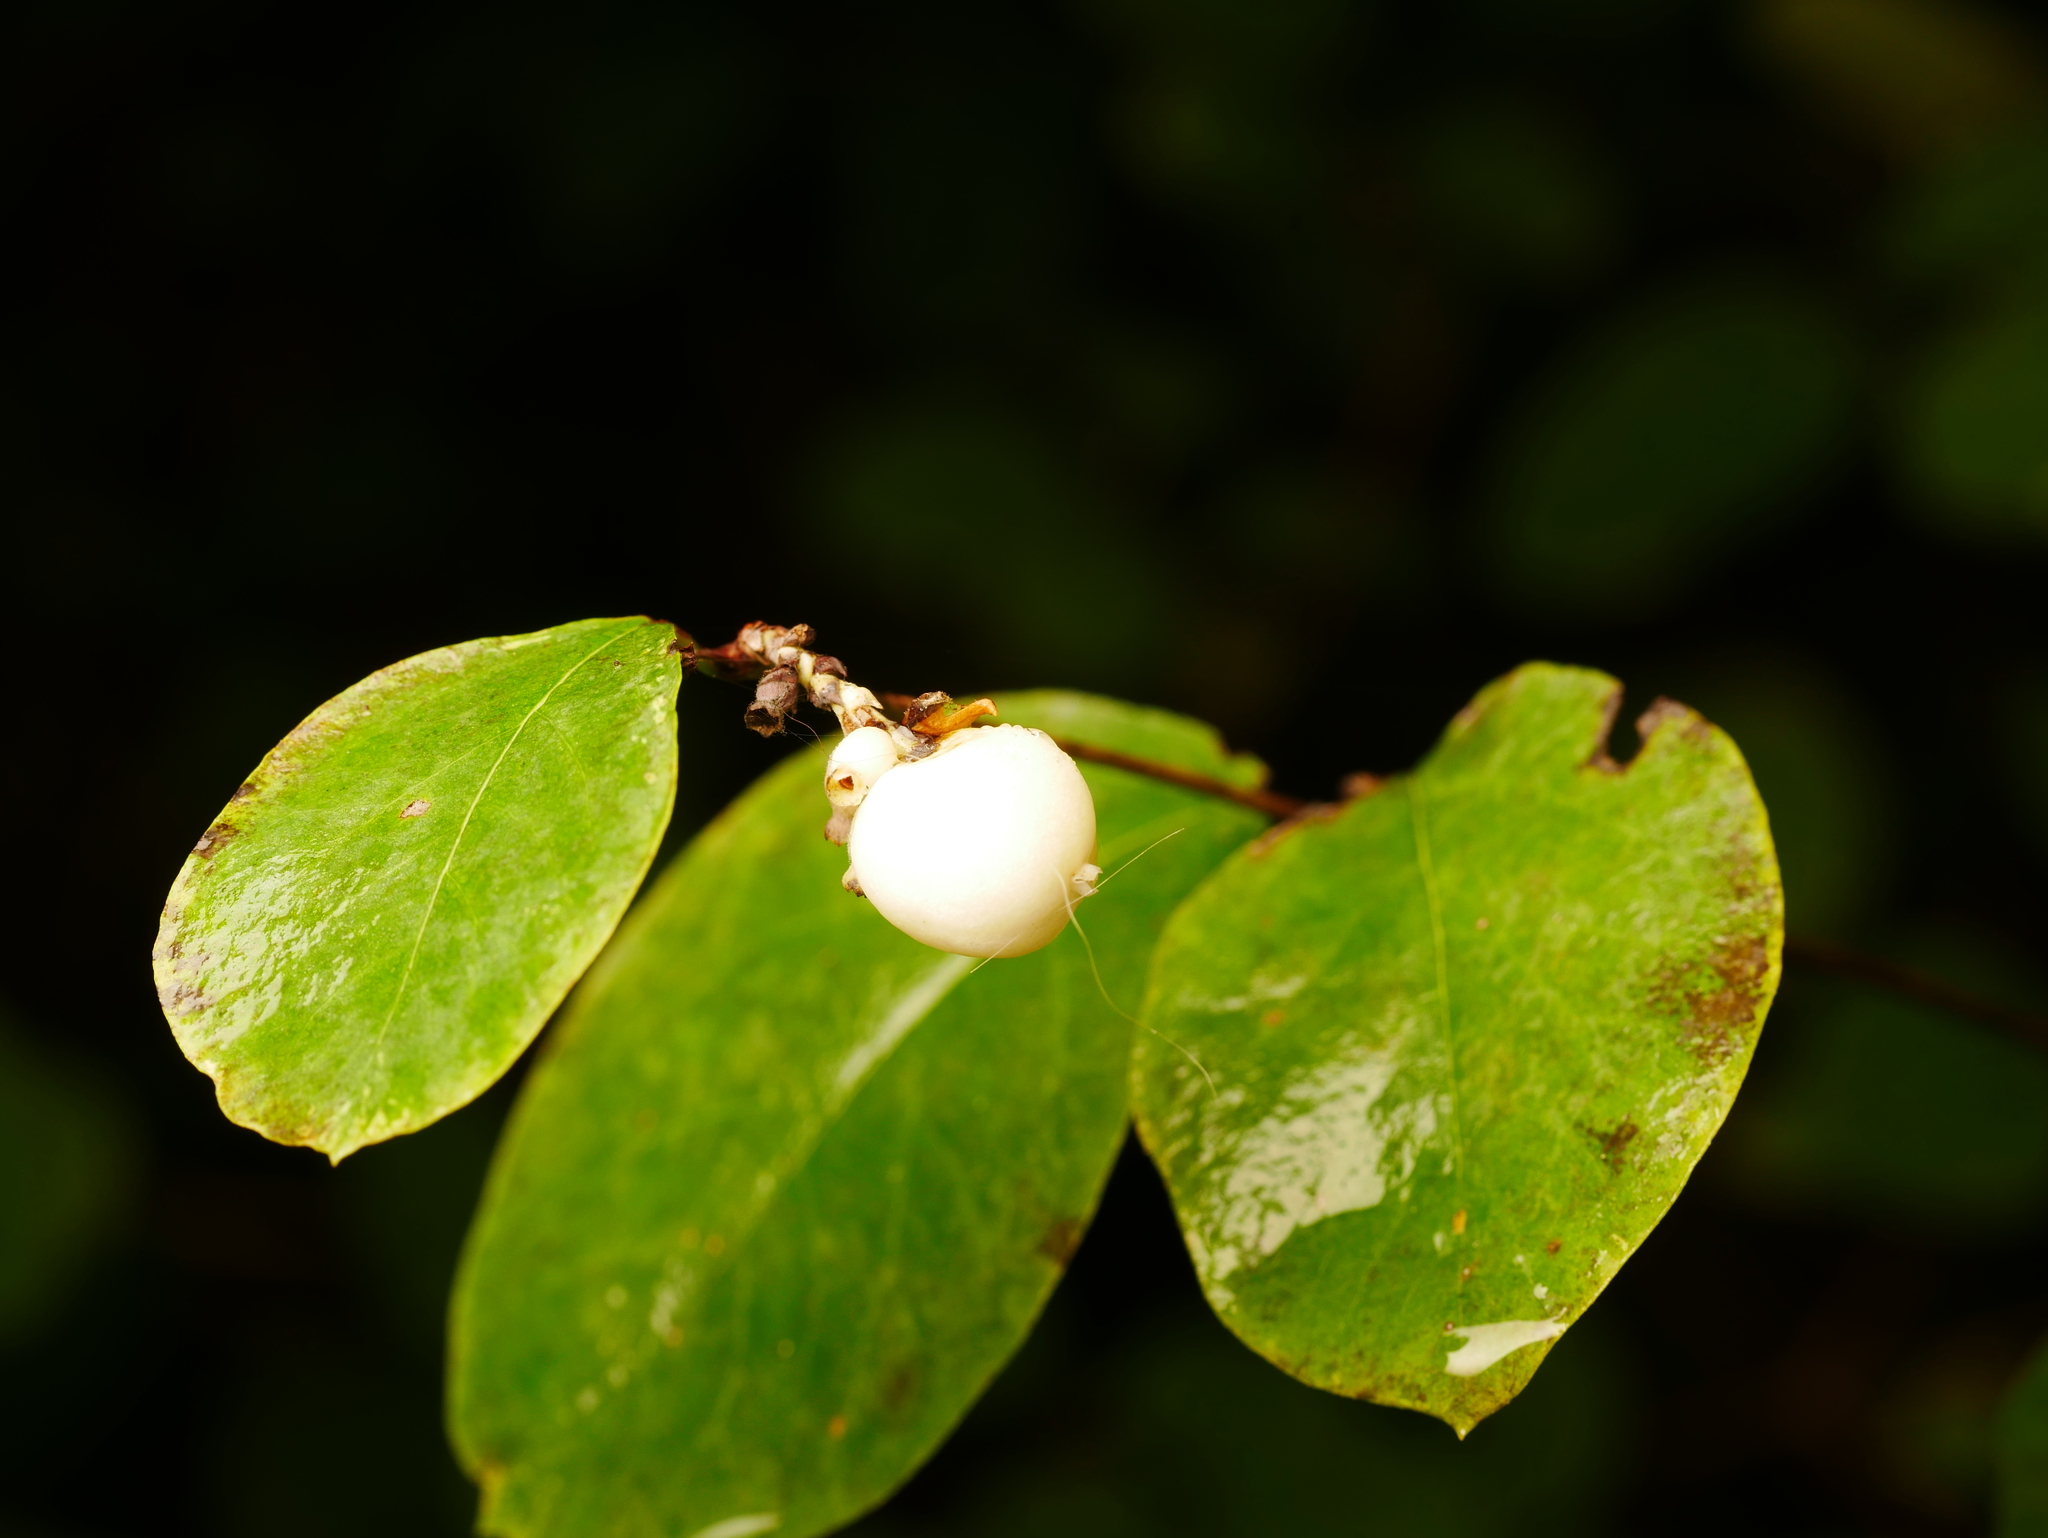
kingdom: Plantae
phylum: Tracheophyta
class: Magnoliopsida
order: Dipsacales
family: Caprifoliaceae
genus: Symphoricarpos
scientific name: Symphoricarpos albus
